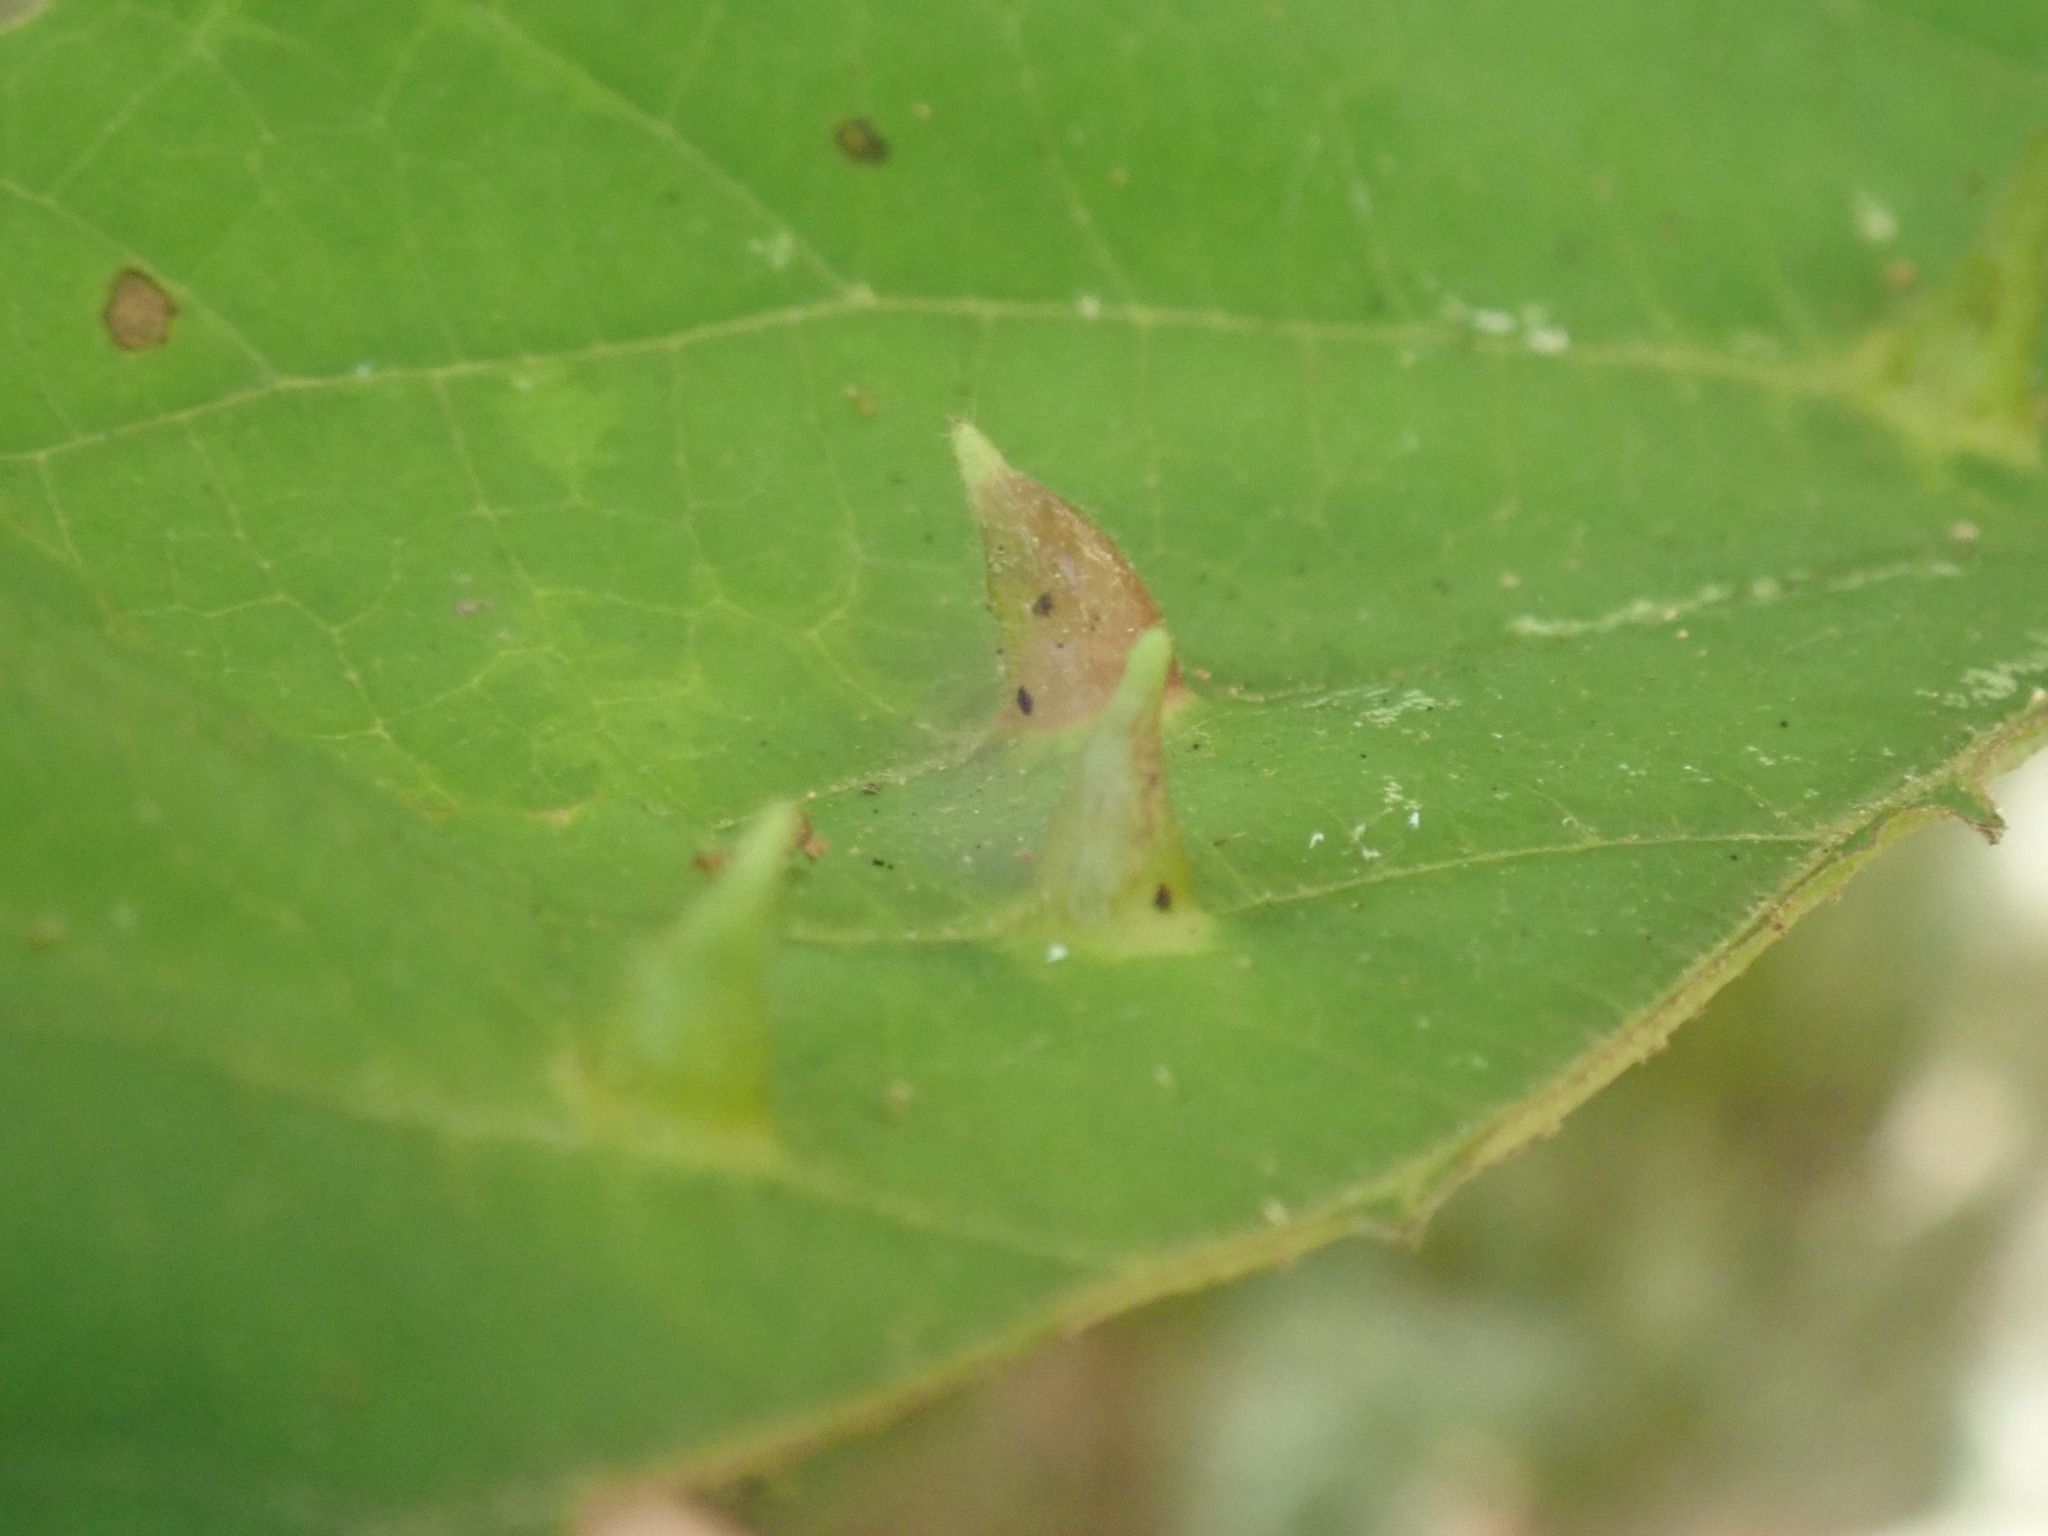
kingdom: Animalia
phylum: Arthropoda
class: Insecta
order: Hemiptera
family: Aphididae
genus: Hormaphis
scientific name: Hormaphis hamamelidis
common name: Witch-hazel cone gall aphid
